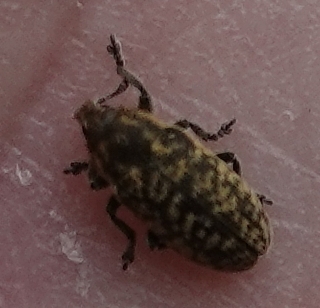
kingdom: Animalia
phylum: Arthropoda
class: Insecta
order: Coleoptera
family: Curculionidae
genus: Rhinocyllus
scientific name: Rhinocyllus conicus
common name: Weevil
